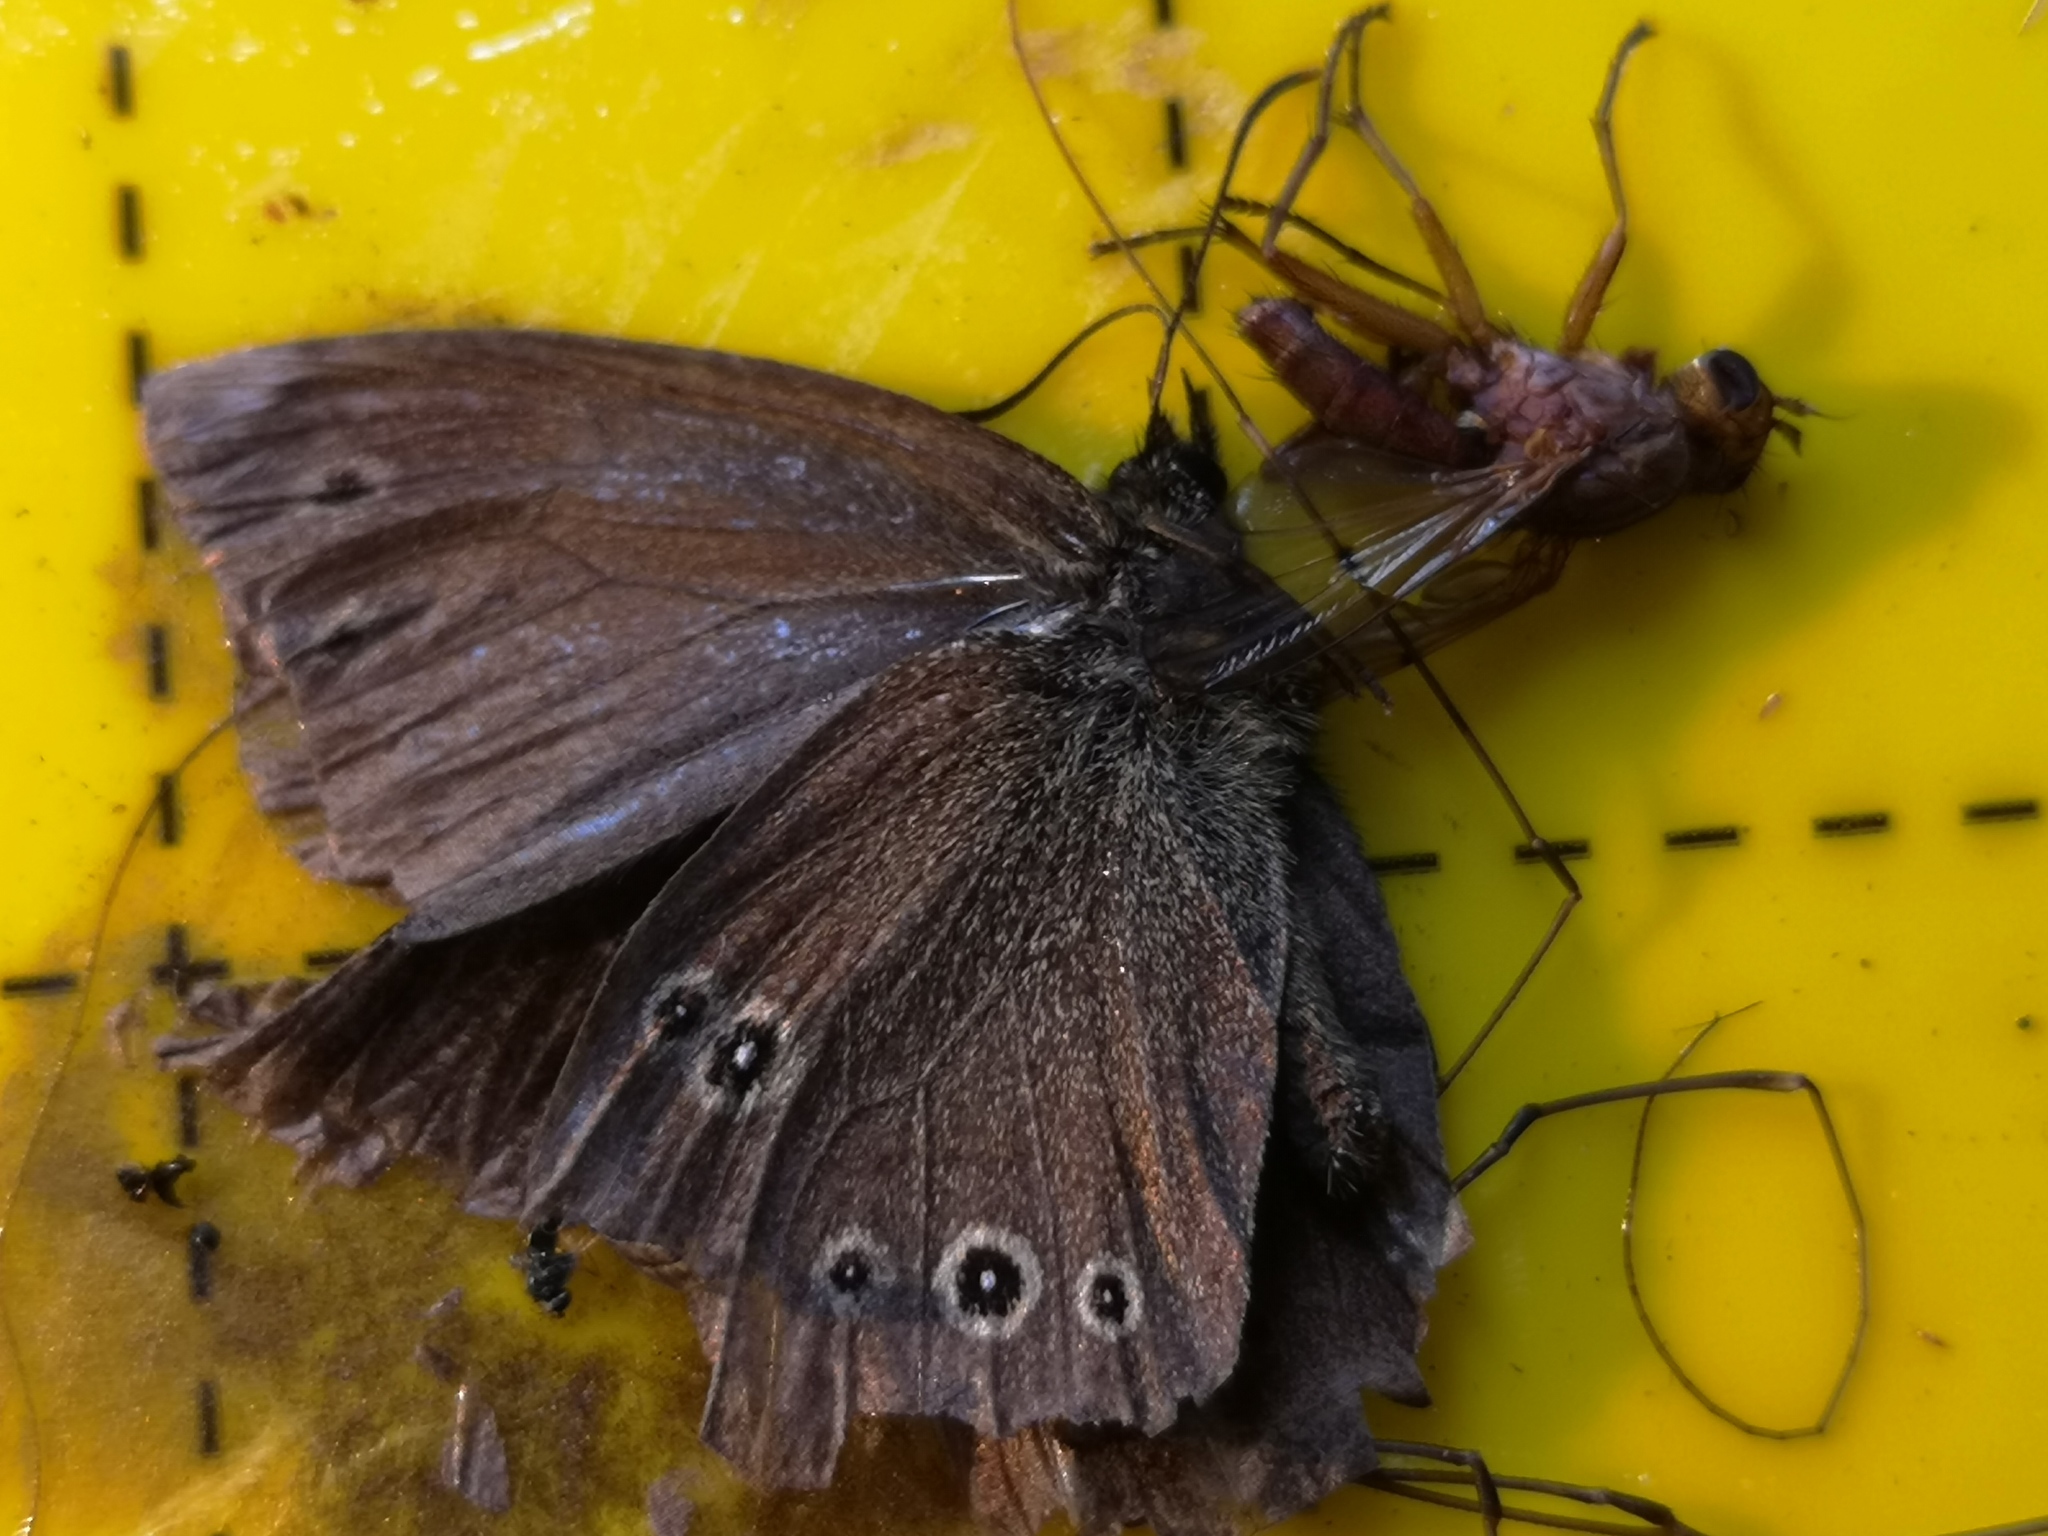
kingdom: Animalia
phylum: Arthropoda
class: Insecta
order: Lepidoptera
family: Nymphalidae
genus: Aphantopus
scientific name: Aphantopus hyperantus
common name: Ringlet
